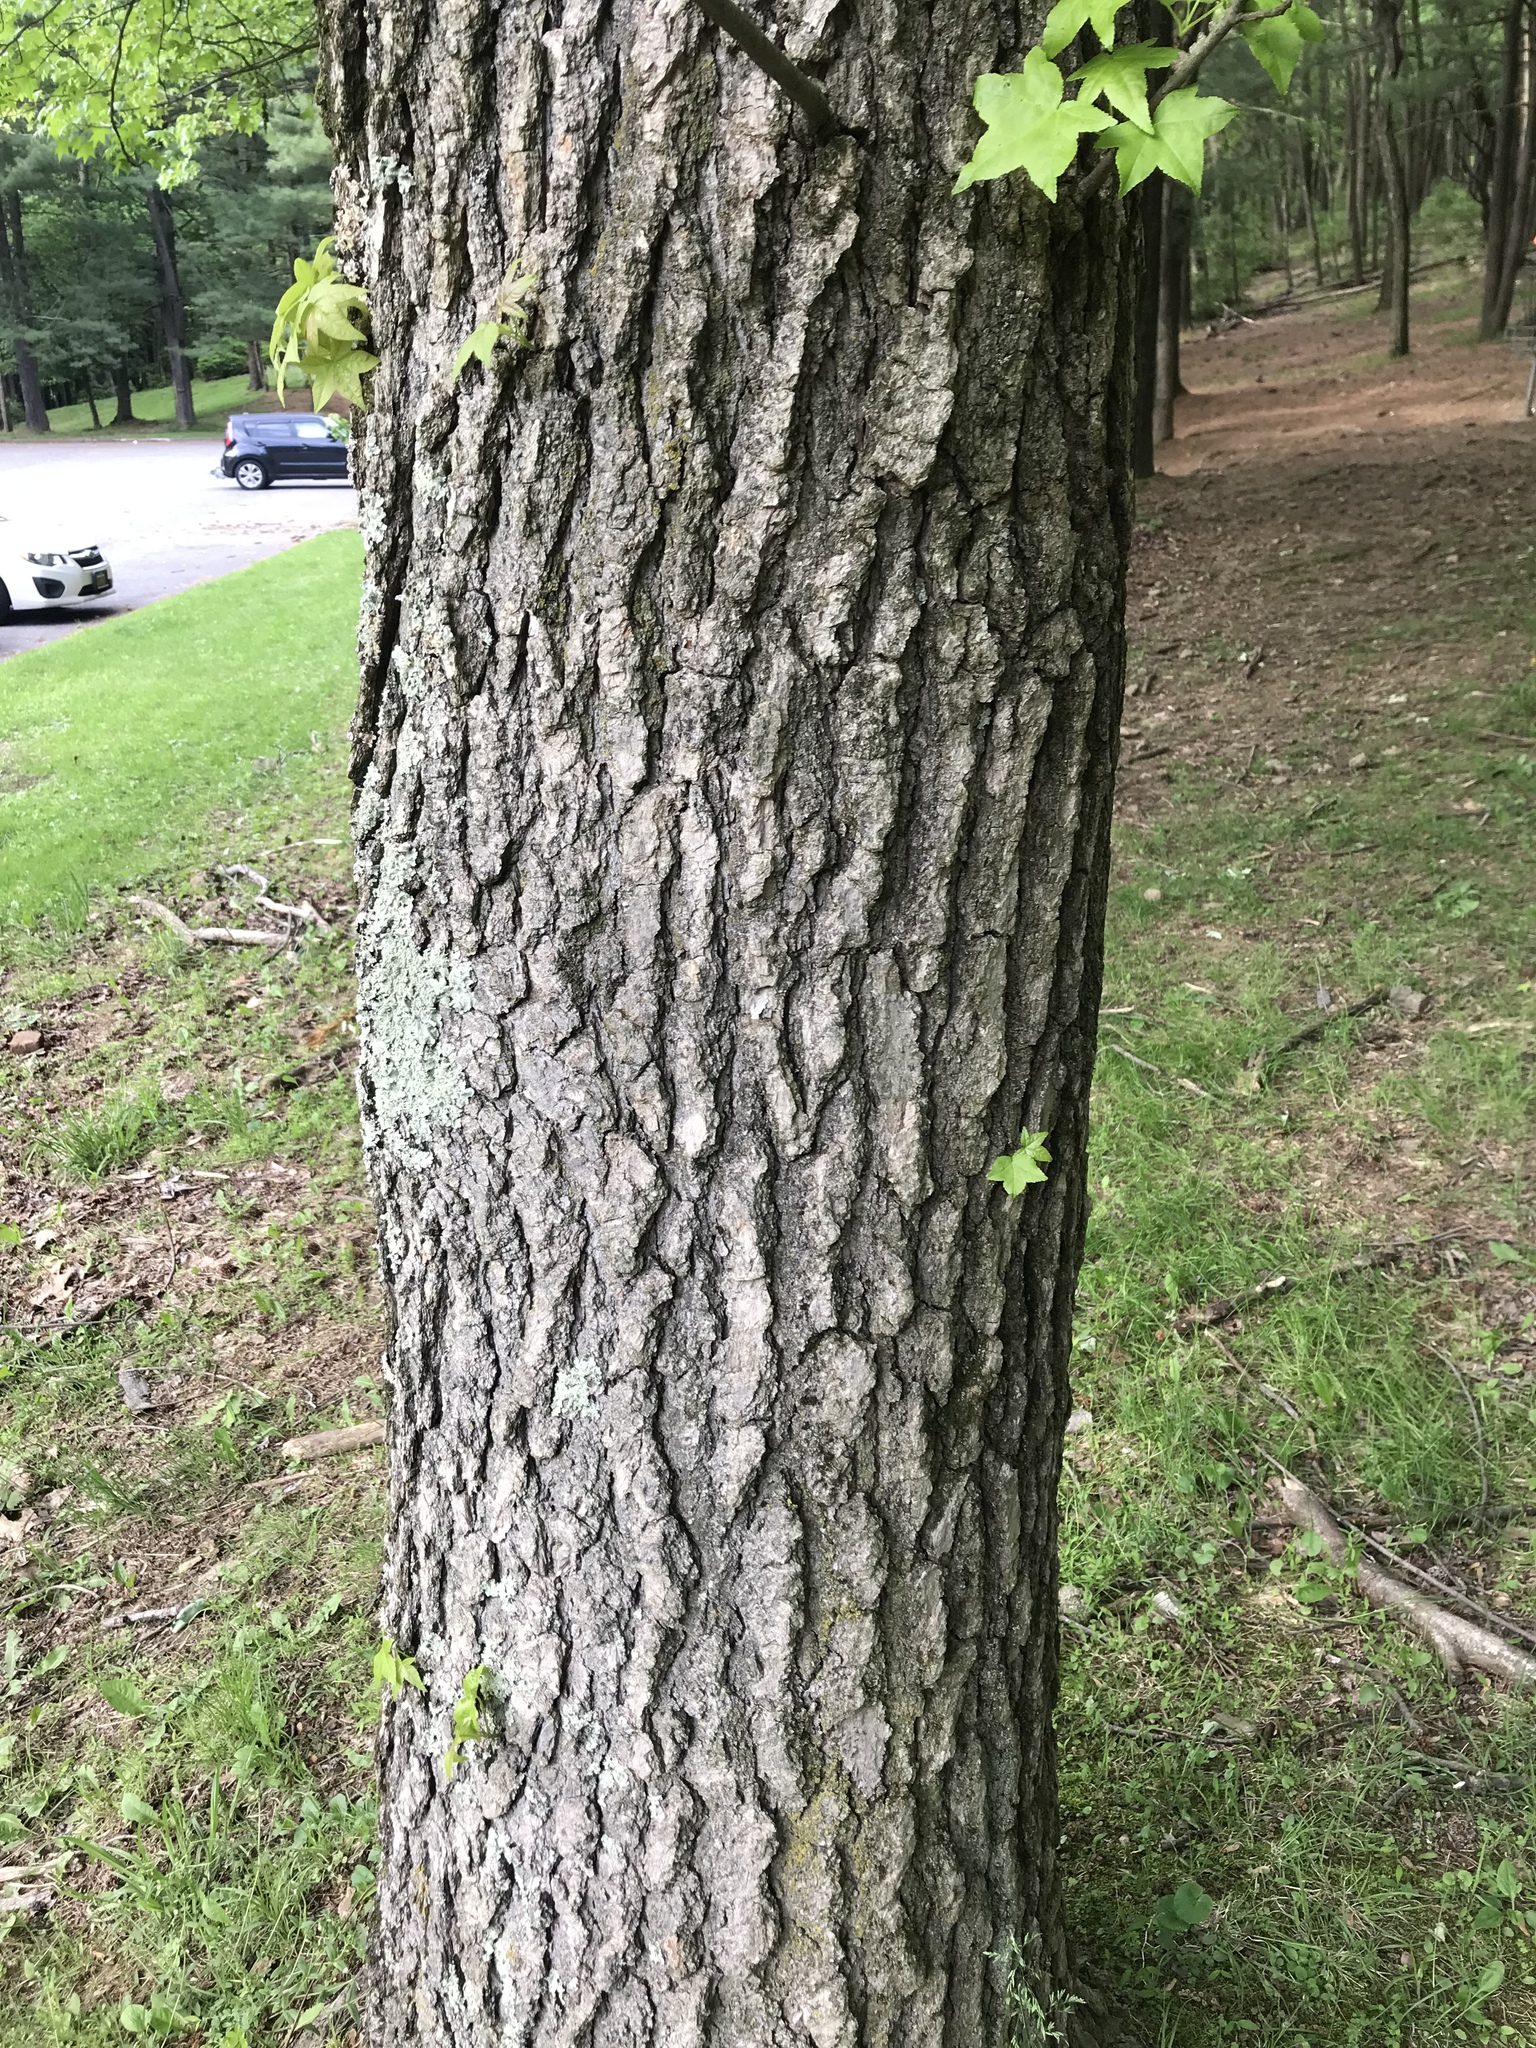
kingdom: Plantae
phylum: Tracheophyta
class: Magnoliopsida
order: Saxifragales
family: Altingiaceae
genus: Liquidambar
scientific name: Liquidambar styraciflua
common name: Sweet gum
